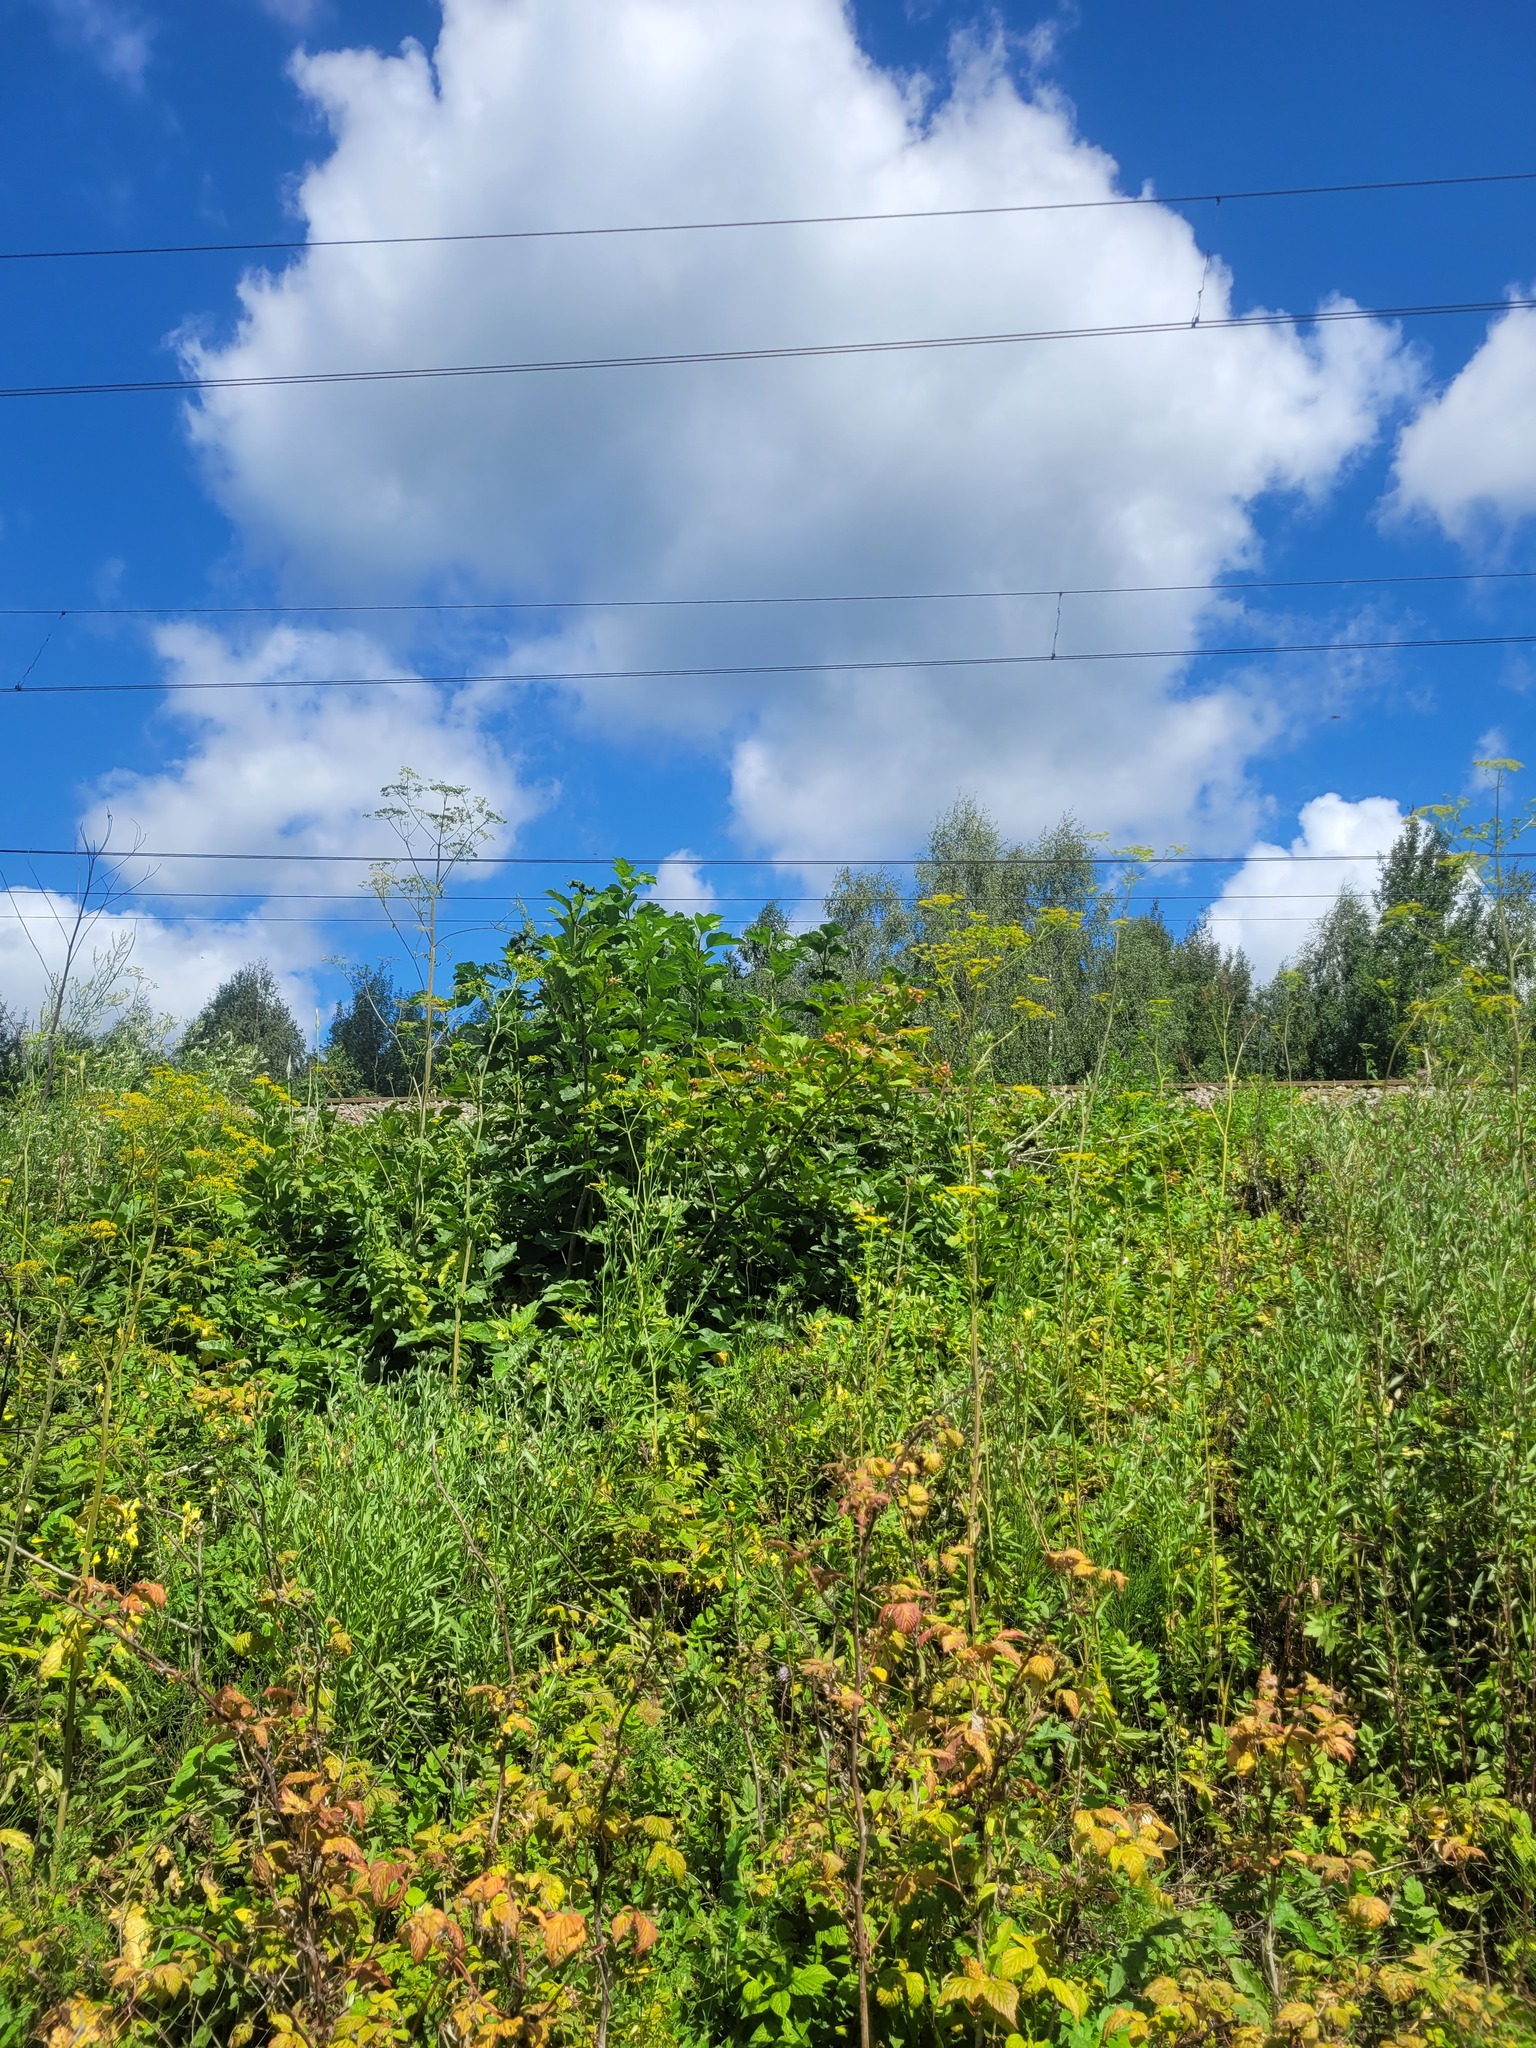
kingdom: Plantae
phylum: Tracheophyta
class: Magnoliopsida
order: Dipsacales
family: Viburnaceae
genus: Viburnum
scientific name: Viburnum opulus
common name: Guelder-rose
